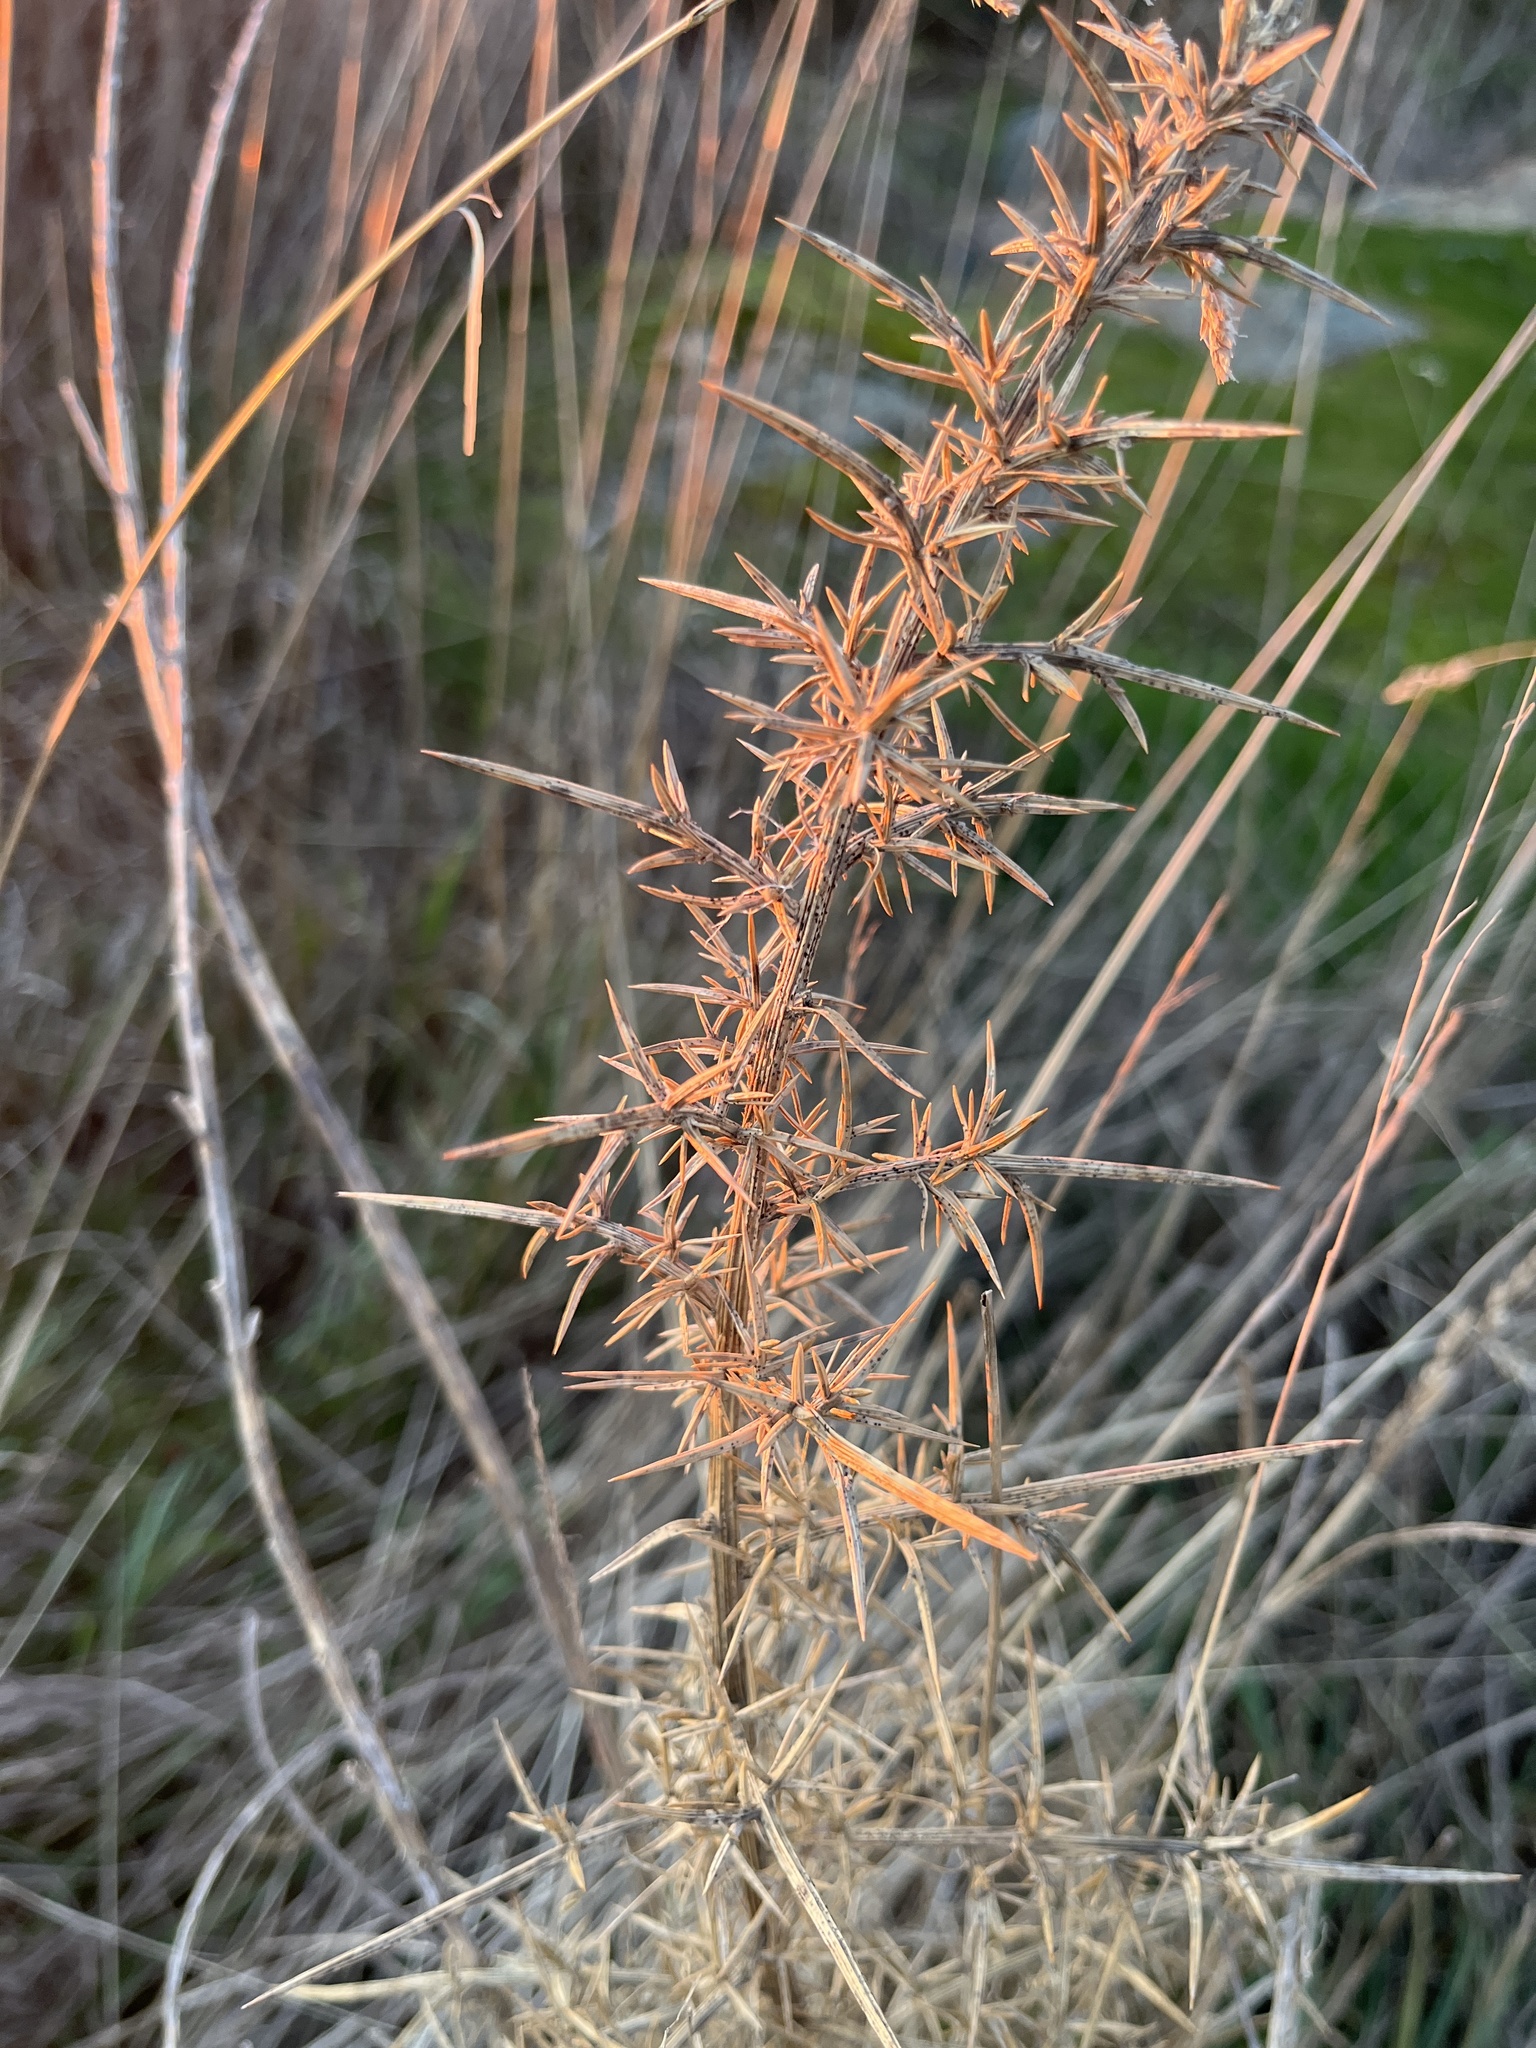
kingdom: Plantae
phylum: Tracheophyta
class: Magnoliopsida
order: Fabales
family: Fabaceae
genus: Ulex
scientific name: Ulex europaeus
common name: Common gorse
